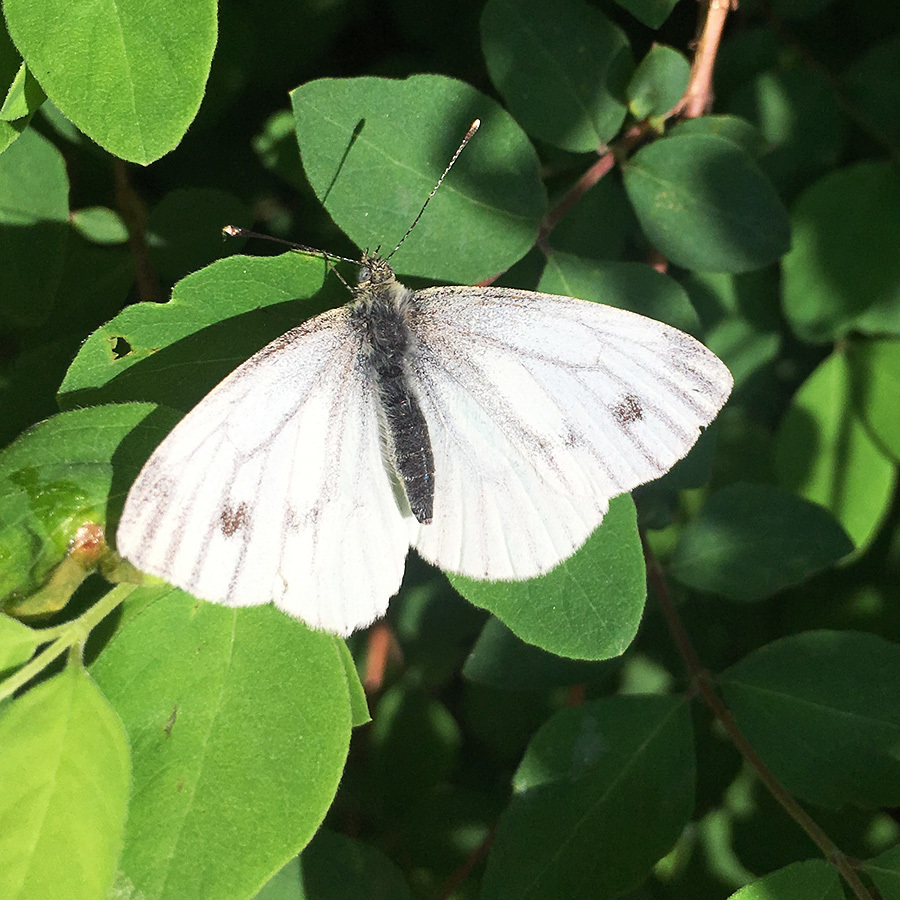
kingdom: Animalia
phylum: Arthropoda
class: Insecta
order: Lepidoptera
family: Pieridae
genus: Pieris
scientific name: Pieris napi
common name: Green-veined white
